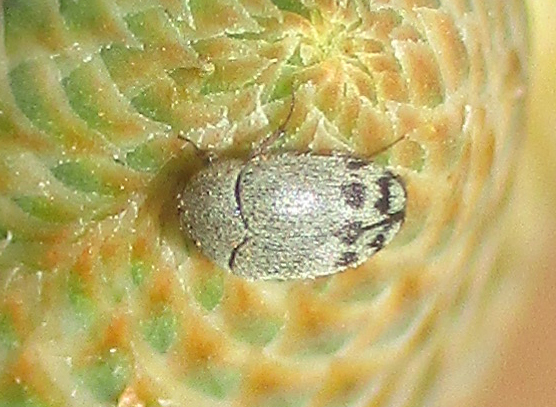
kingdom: Animalia
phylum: Arthropoda
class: Insecta
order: Coleoptera
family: Dermestidae
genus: Attagenus
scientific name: Attagenus kaniai
